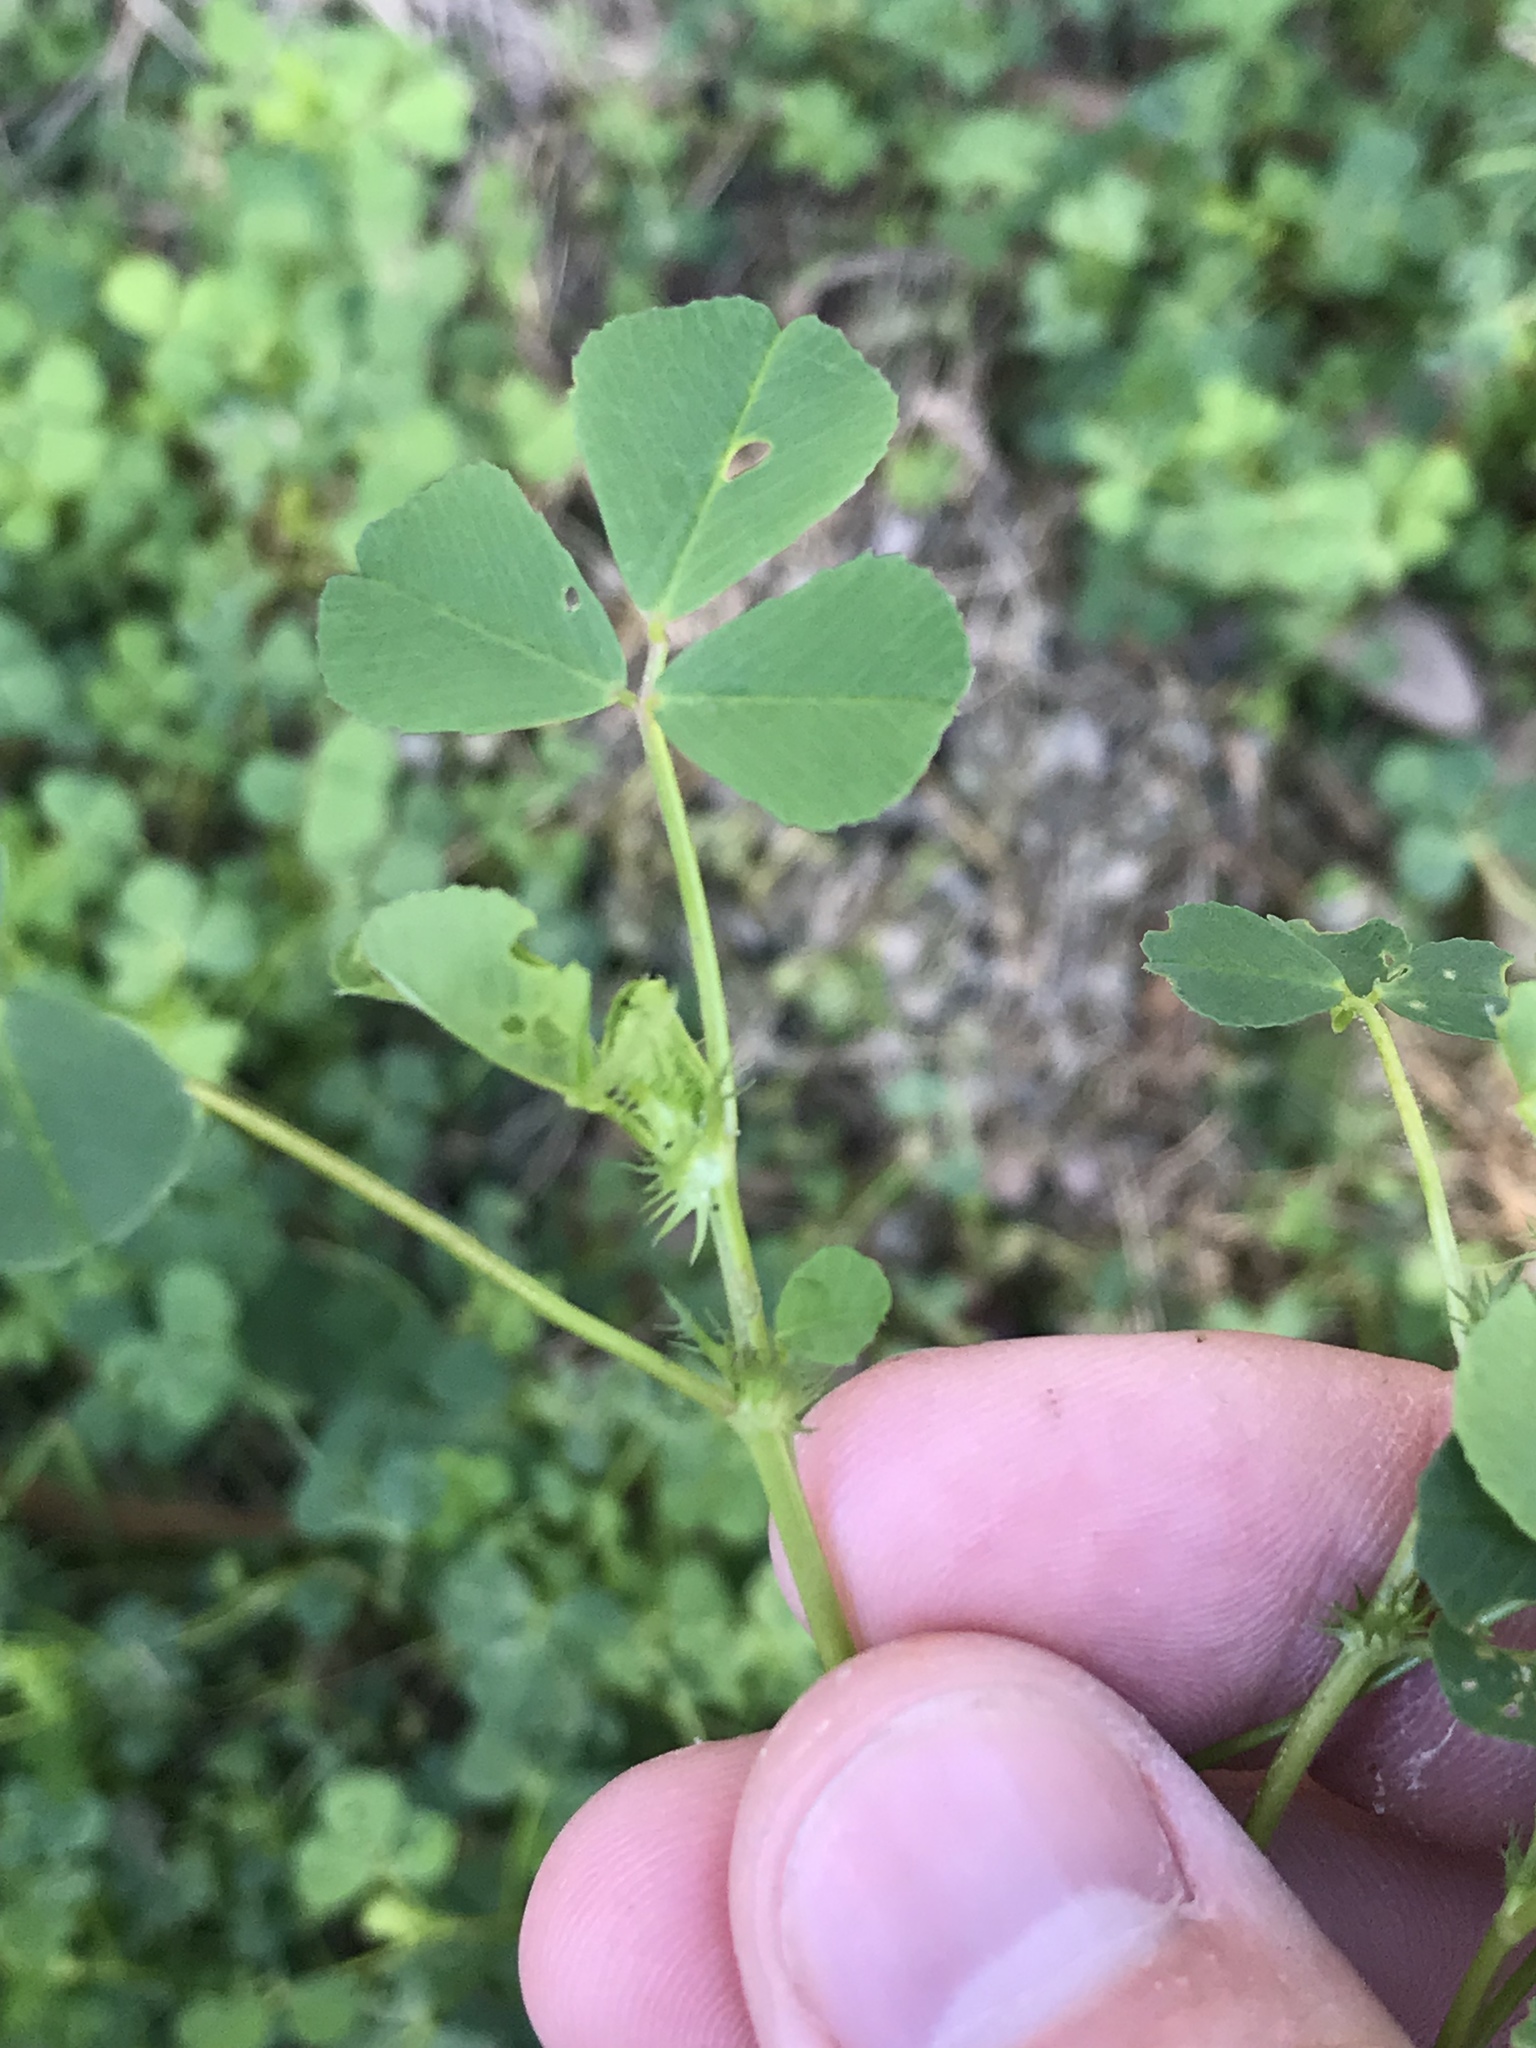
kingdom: Plantae
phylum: Tracheophyta
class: Magnoliopsida
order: Fabales
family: Fabaceae
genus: Medicago
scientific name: Medicago polymorpha
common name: Burclover
